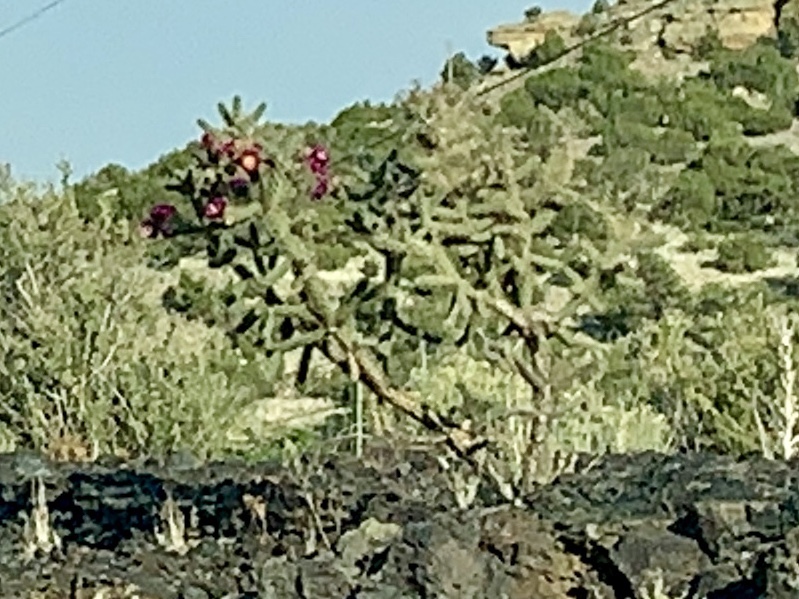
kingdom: Plantae
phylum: Tracheophyta
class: Magnoliopsida
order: Caryophyllales
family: Cactaceae
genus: Cylindropuntia
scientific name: Cylindropuntia imbricata
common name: Candelabrum cactus
